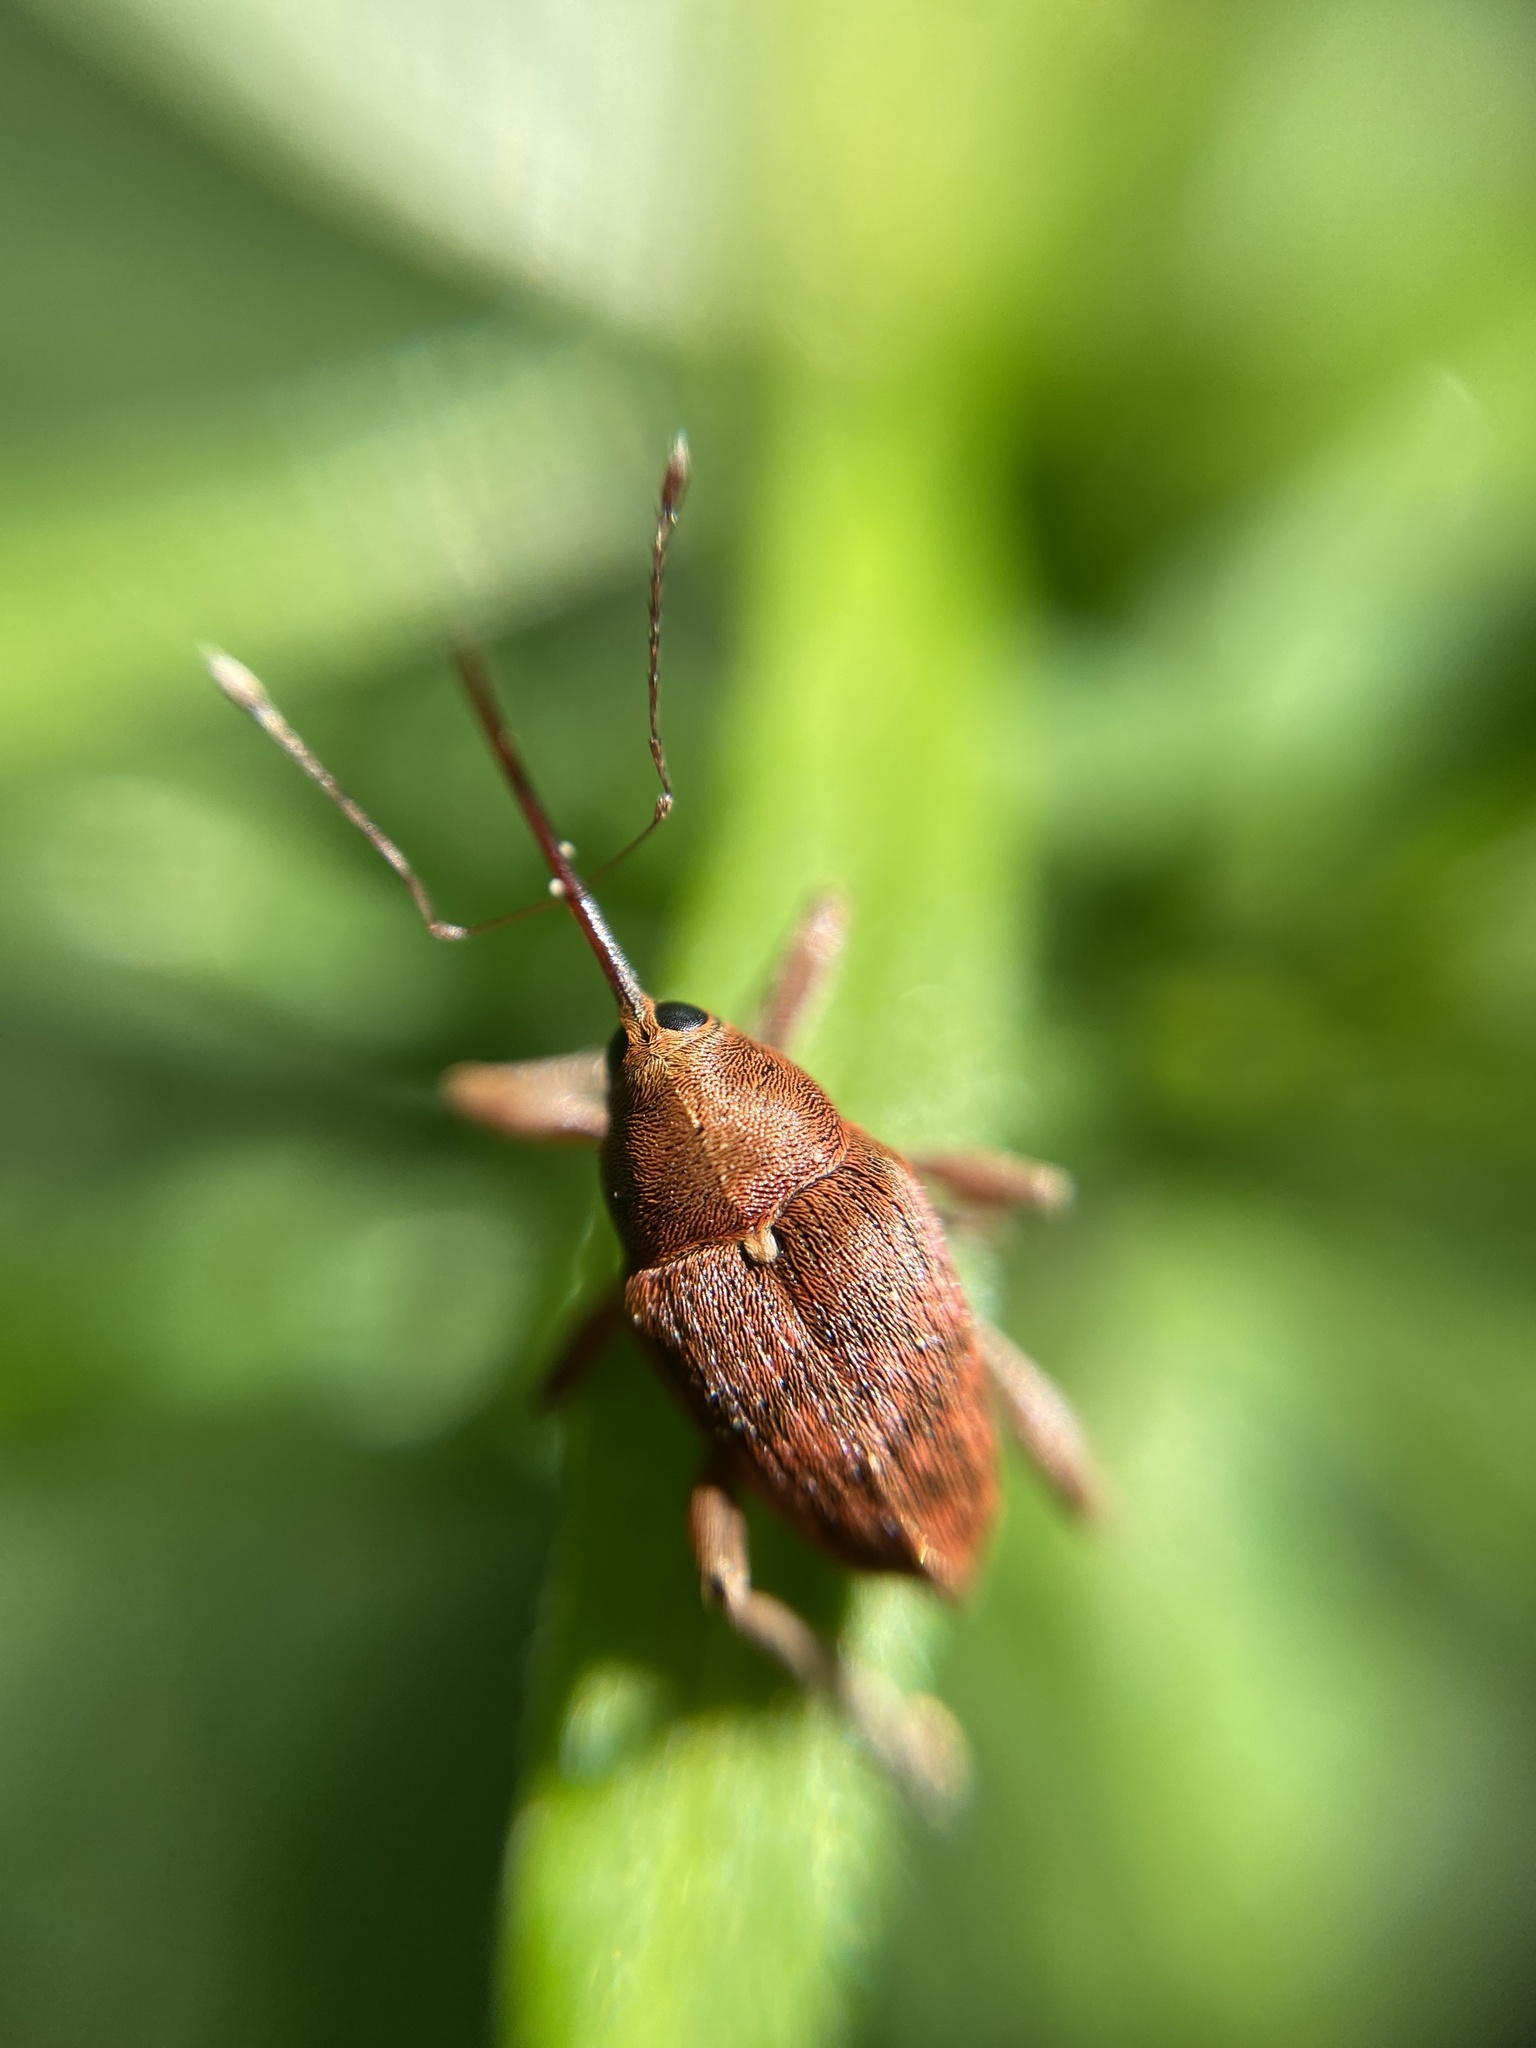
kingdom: Animalia
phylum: Arthropoda
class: Insecta
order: Coleoptera
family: Curculionidae
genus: Curculio
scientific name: Curculio glandium
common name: Acorn weevil
